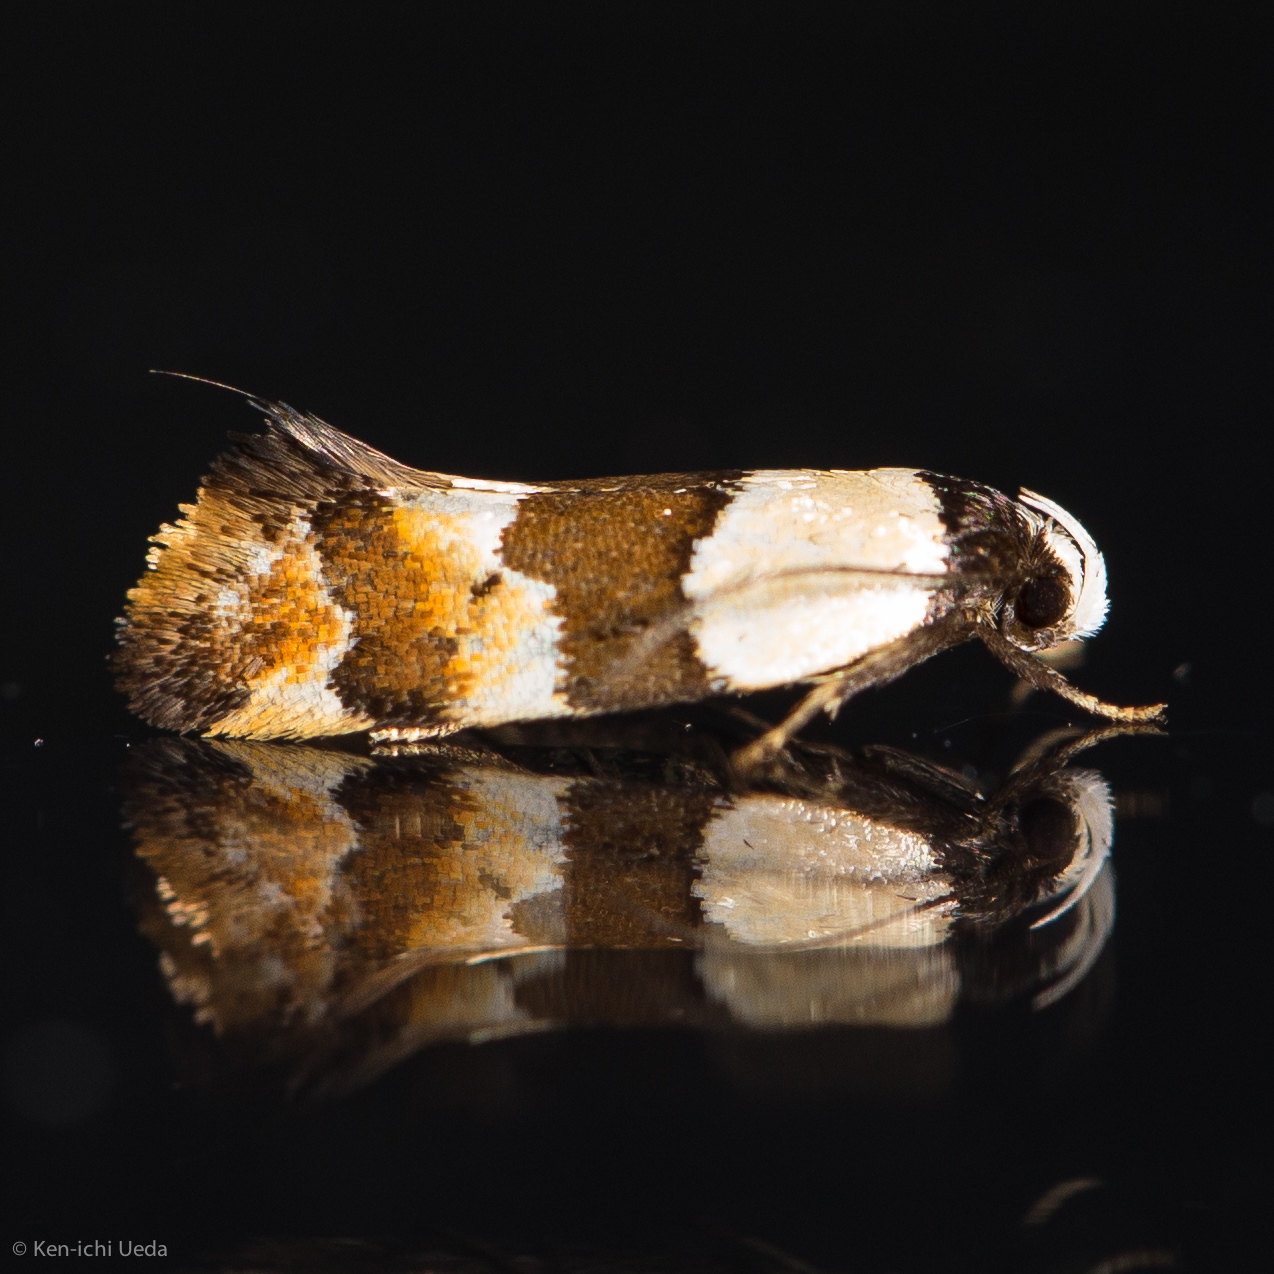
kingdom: Animalia
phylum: Arthropoda
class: Insecta
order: Lepidoptera
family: Oecophoridae
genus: Euphiltra
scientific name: Euphiltra eroticella
